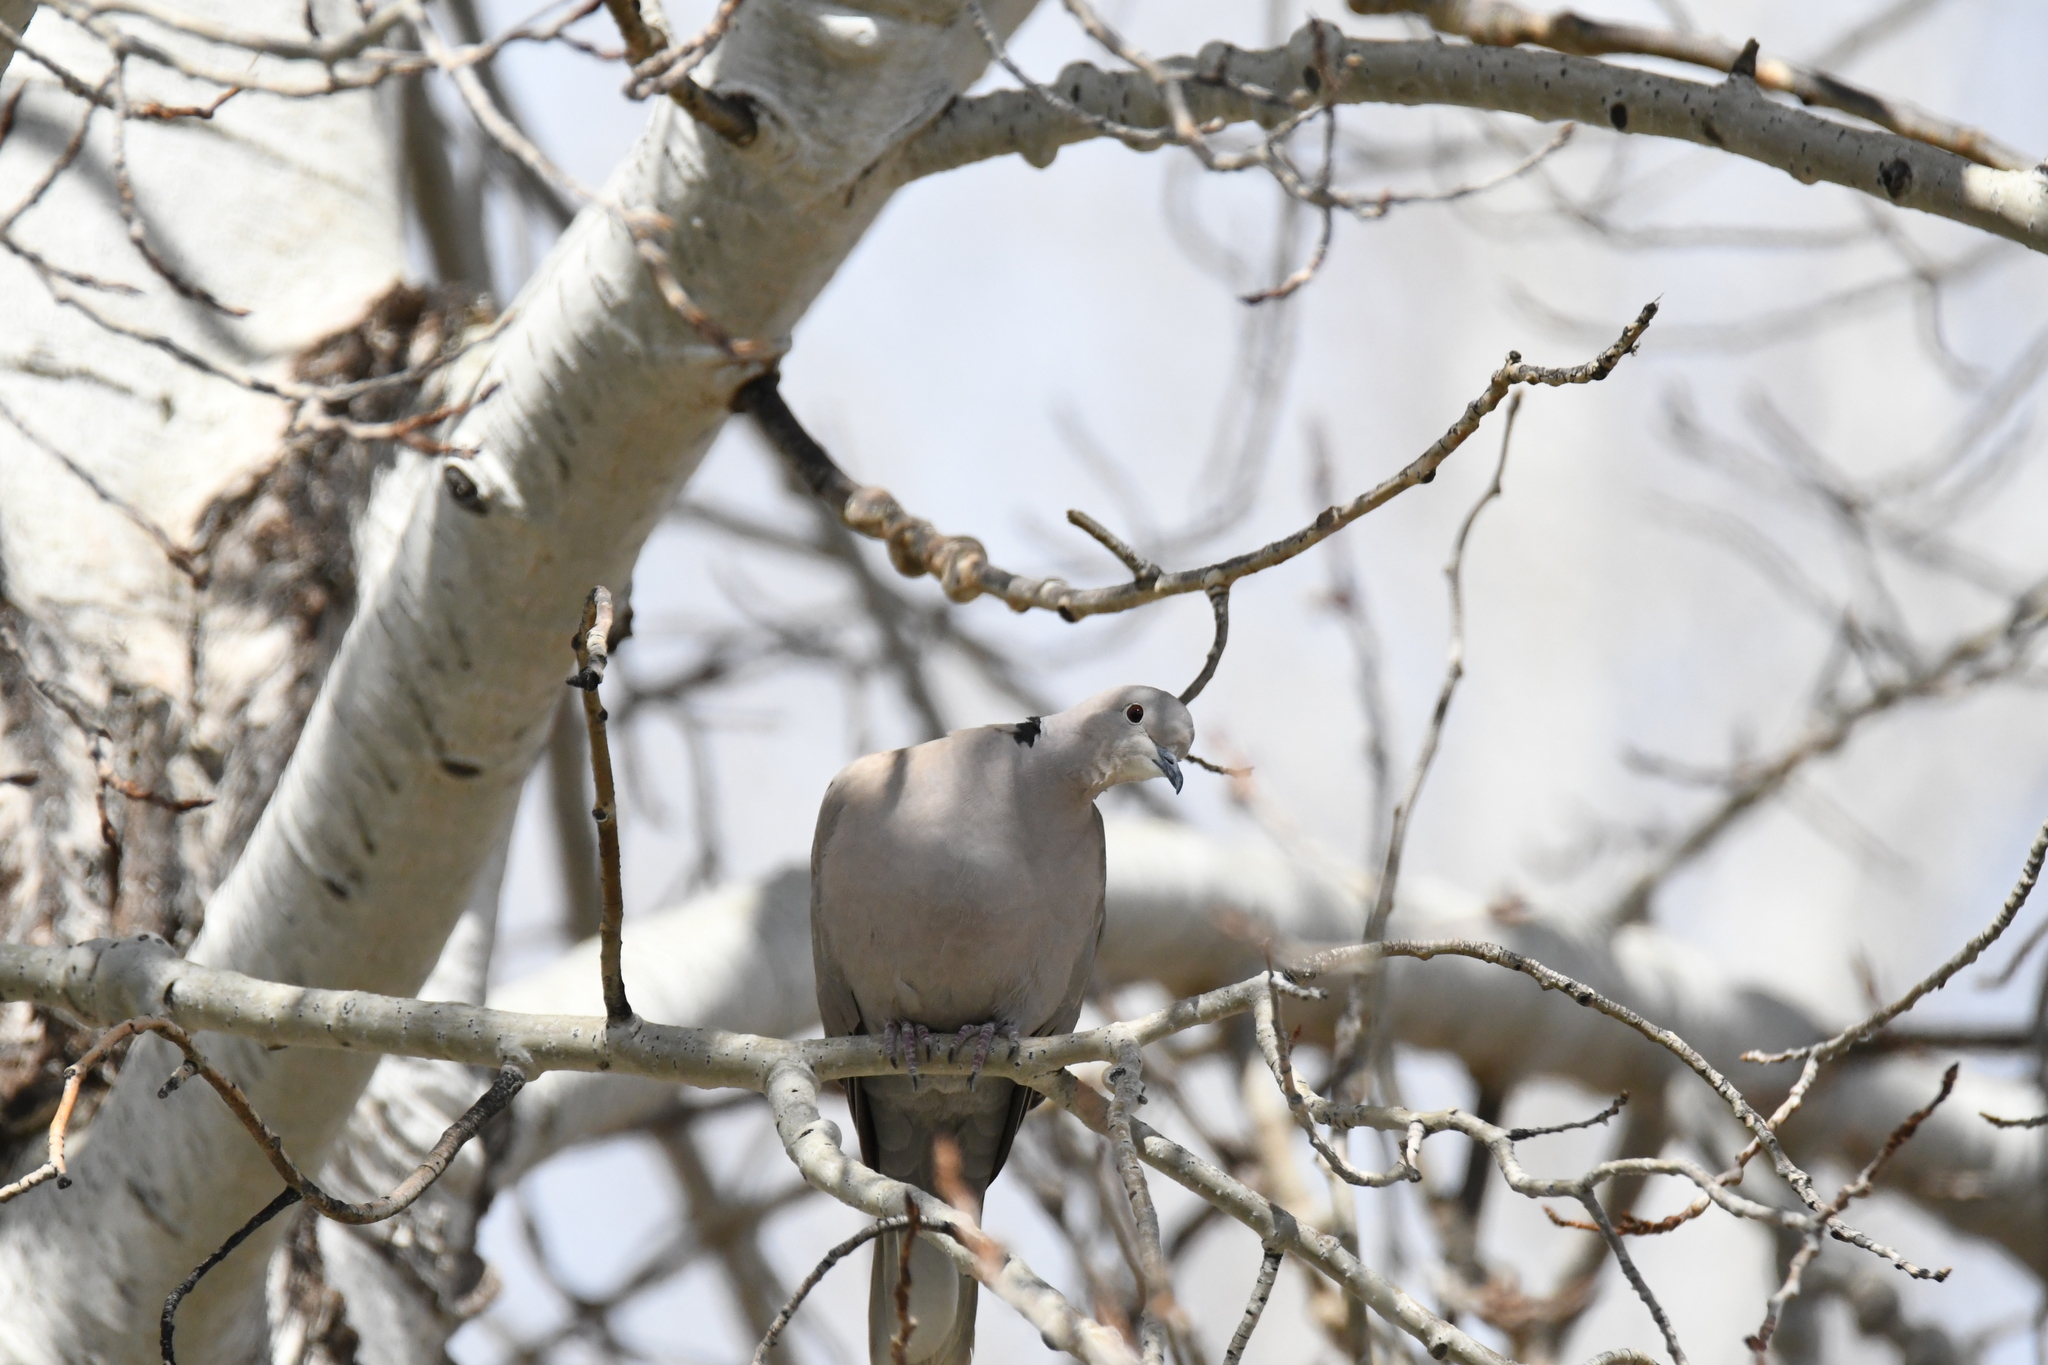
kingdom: Animalia
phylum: Chordata
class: Aves
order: Columbiformes
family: Columbidae
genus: Streptopelia
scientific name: Streptopelia decaocto
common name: Eurasian collared dove
